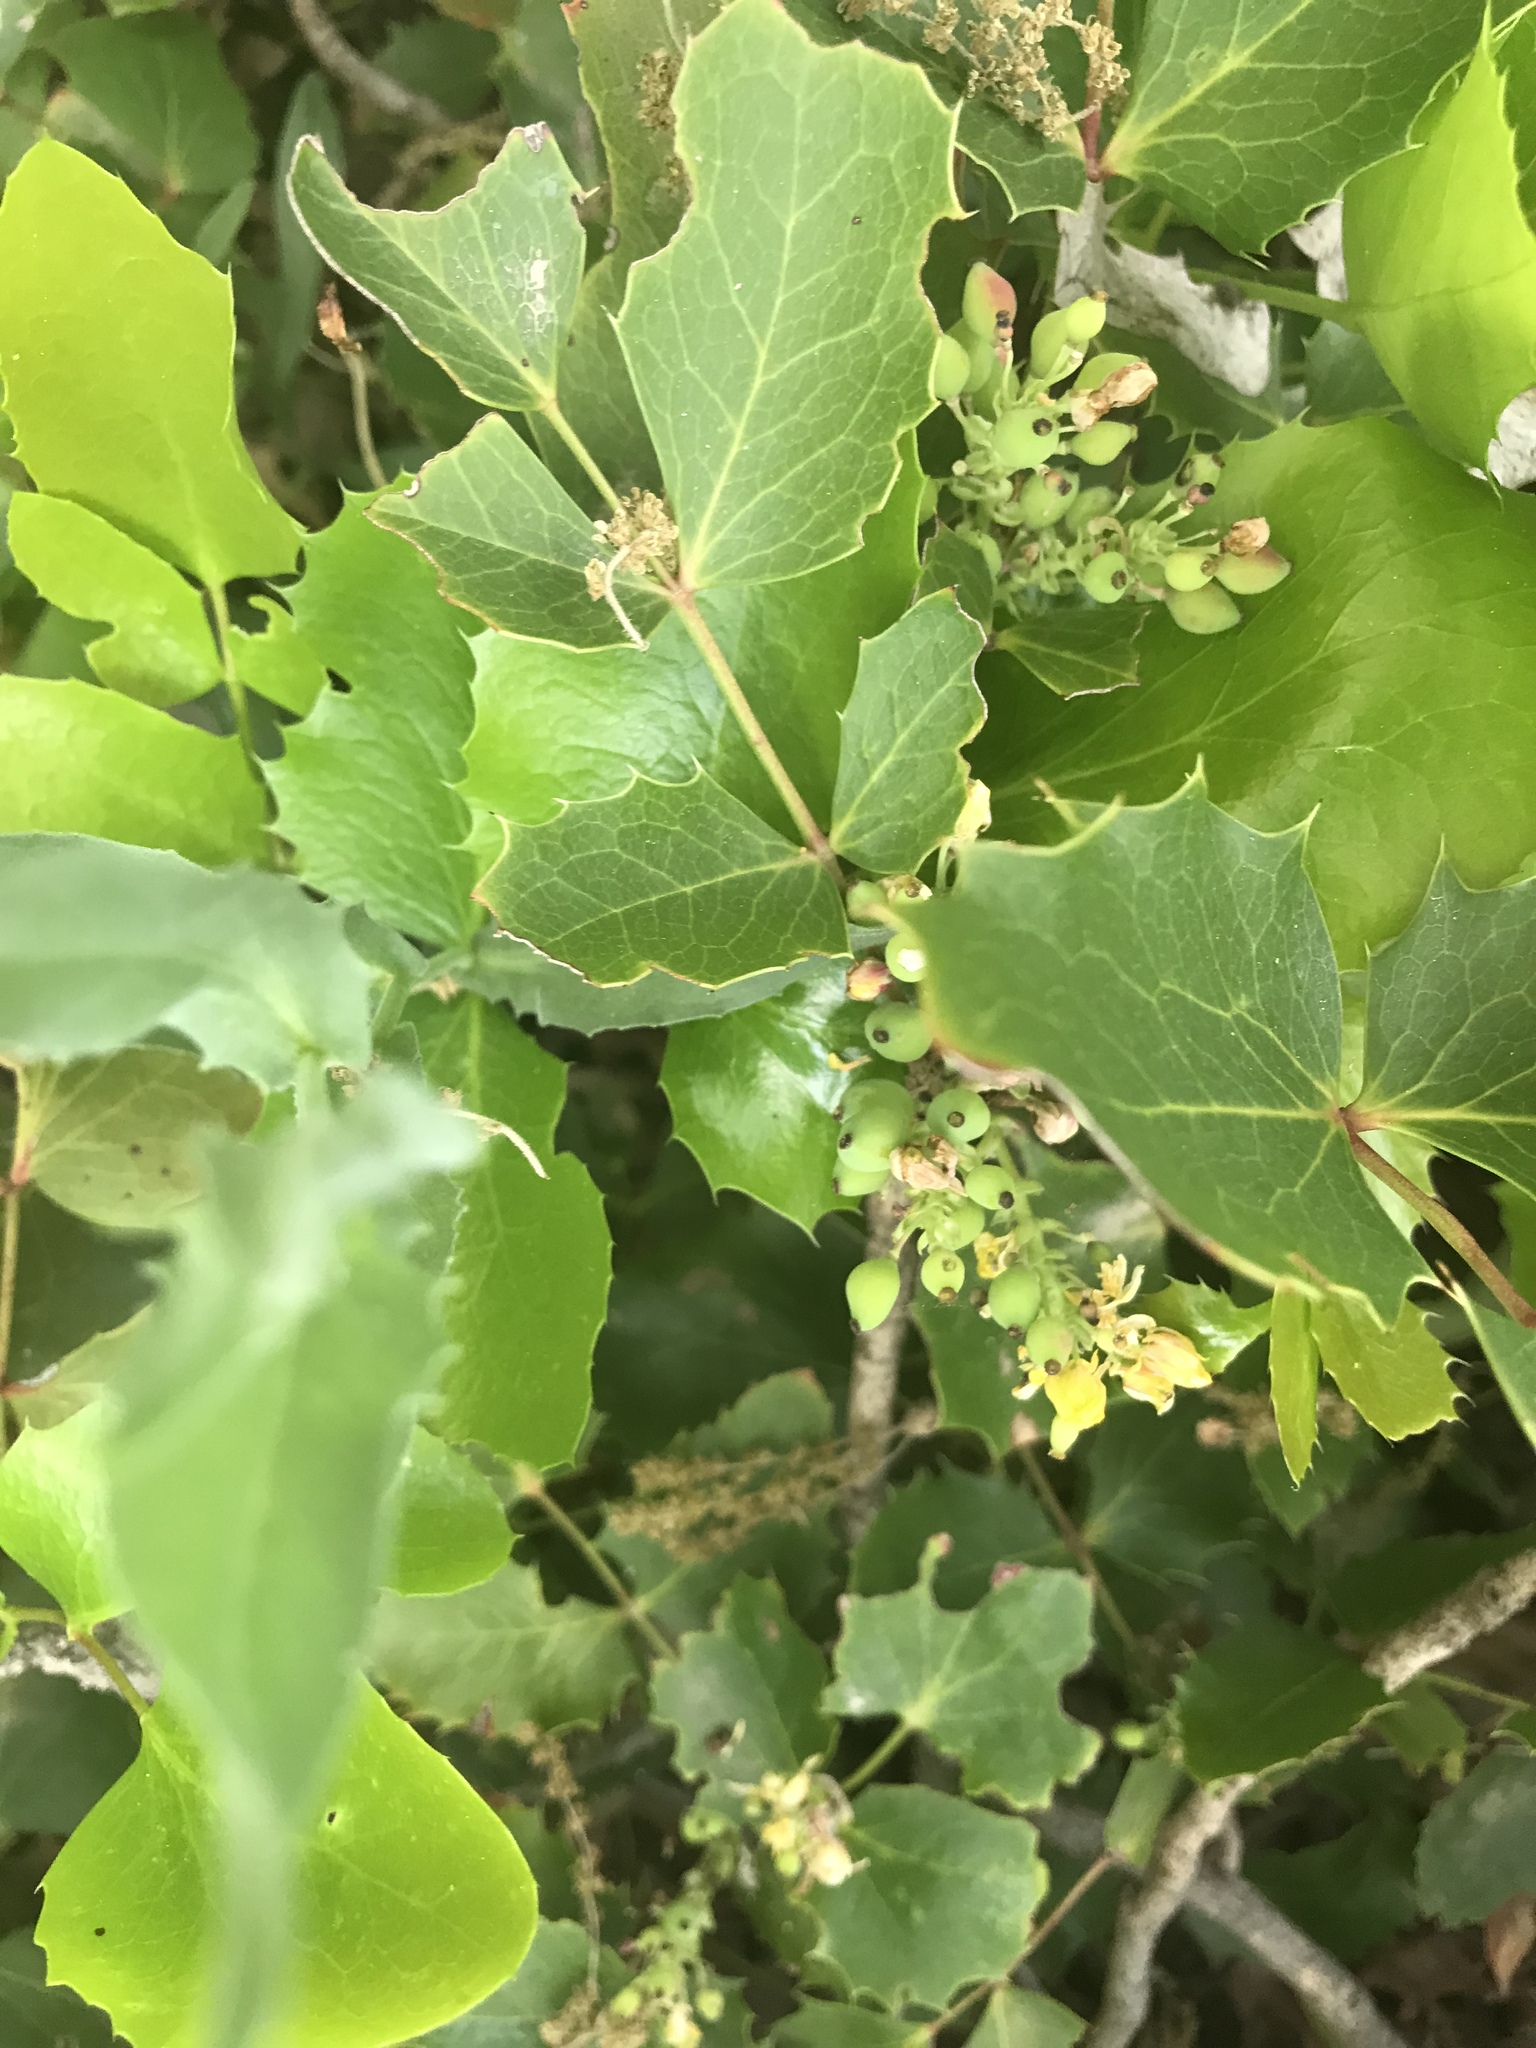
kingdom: Plantae
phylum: Tracheophyta
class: Magnoliopsida
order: Ranunculales
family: Berberidaceae
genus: Mahonia
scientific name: Mahonia repens
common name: Creeping oregon-grape
